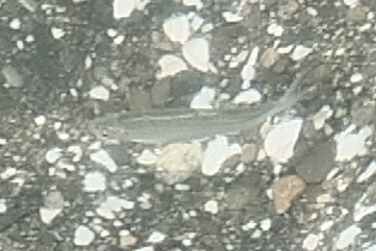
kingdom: Animalia
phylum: Chordata
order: Cypriniformes
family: Cyprinidae
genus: Alburnus
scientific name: Alburnus derjugini
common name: Georgian shemaya
